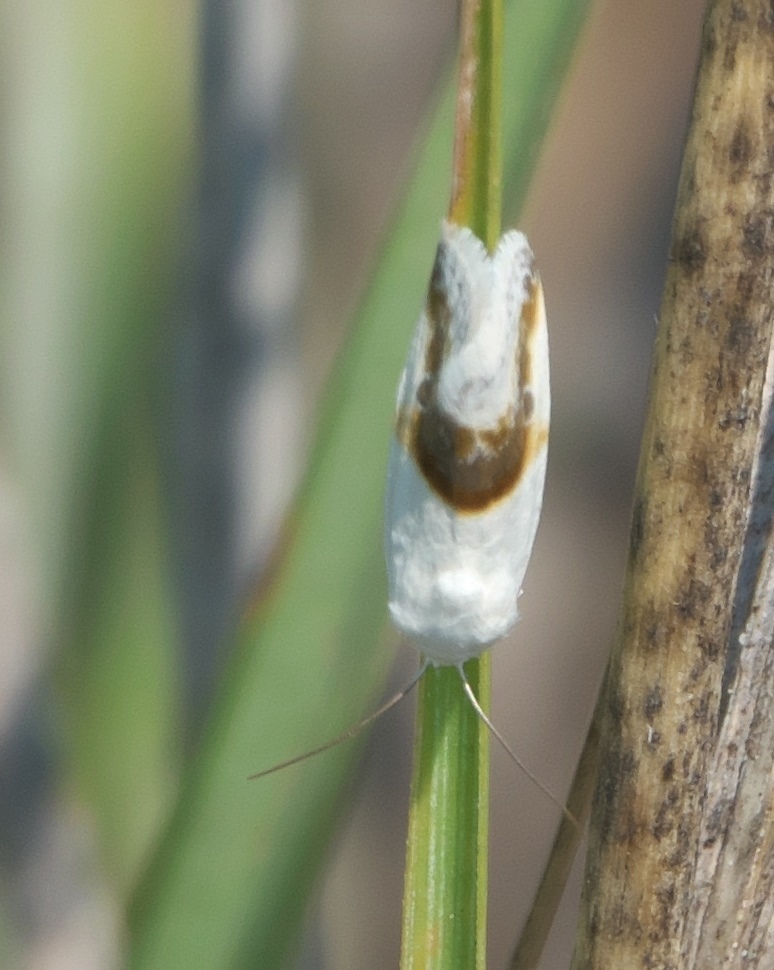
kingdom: Animalia
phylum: Arthropoda
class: Insecta
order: Lepidoptera
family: Noctuidae
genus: Acontia
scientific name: Acontia binocula
